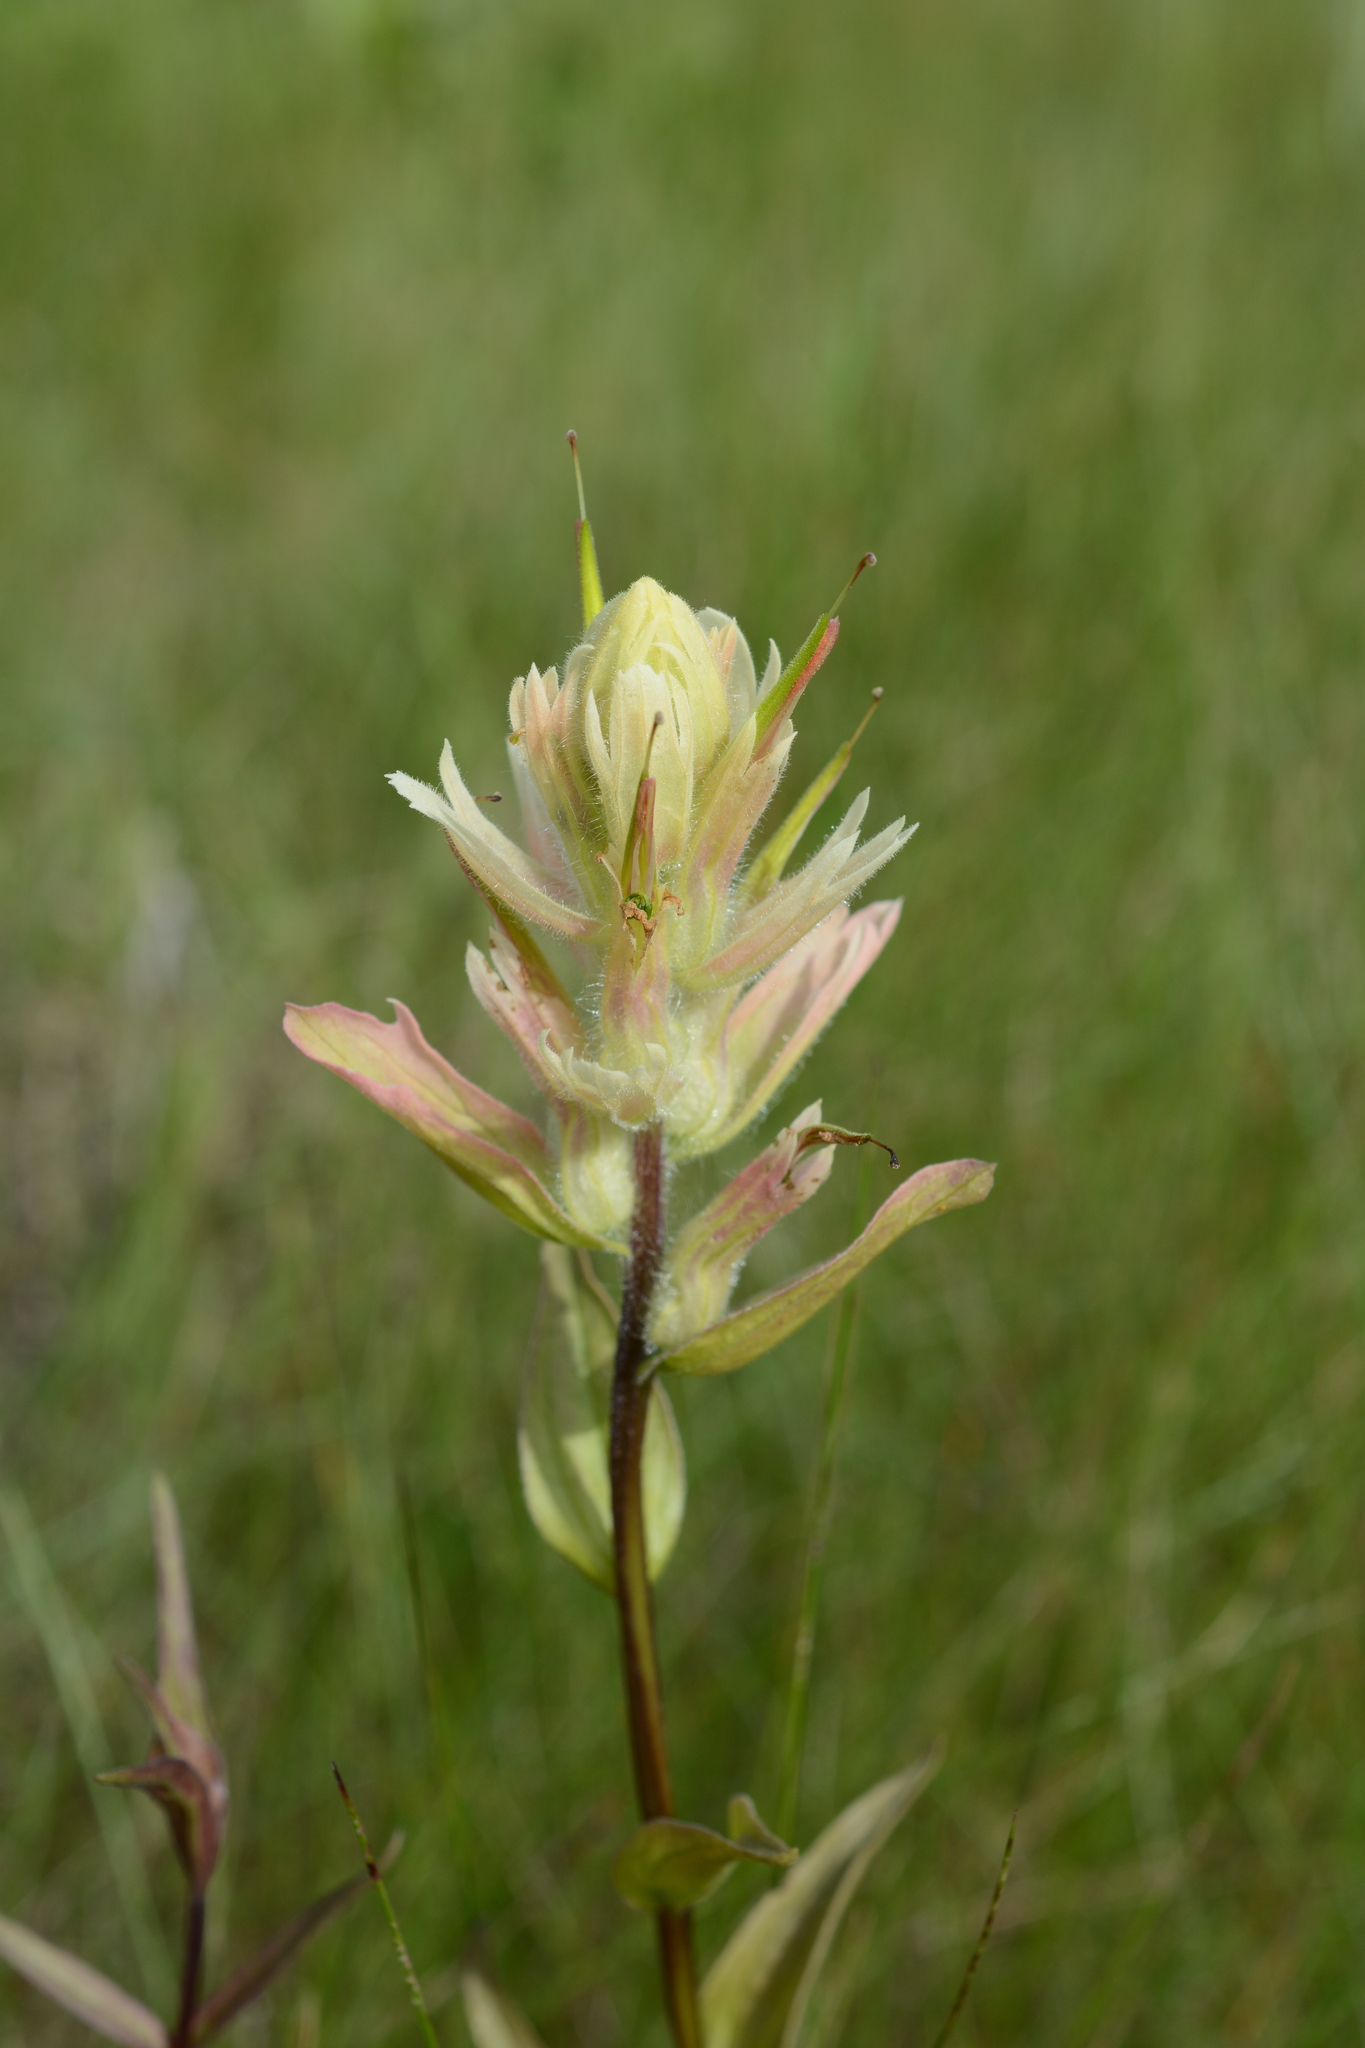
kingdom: Plantae
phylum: Tracheophyta
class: Magnoliopsida
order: Lamiales
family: Orobanchaceae
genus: Castilleja
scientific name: Castilleja miniata
